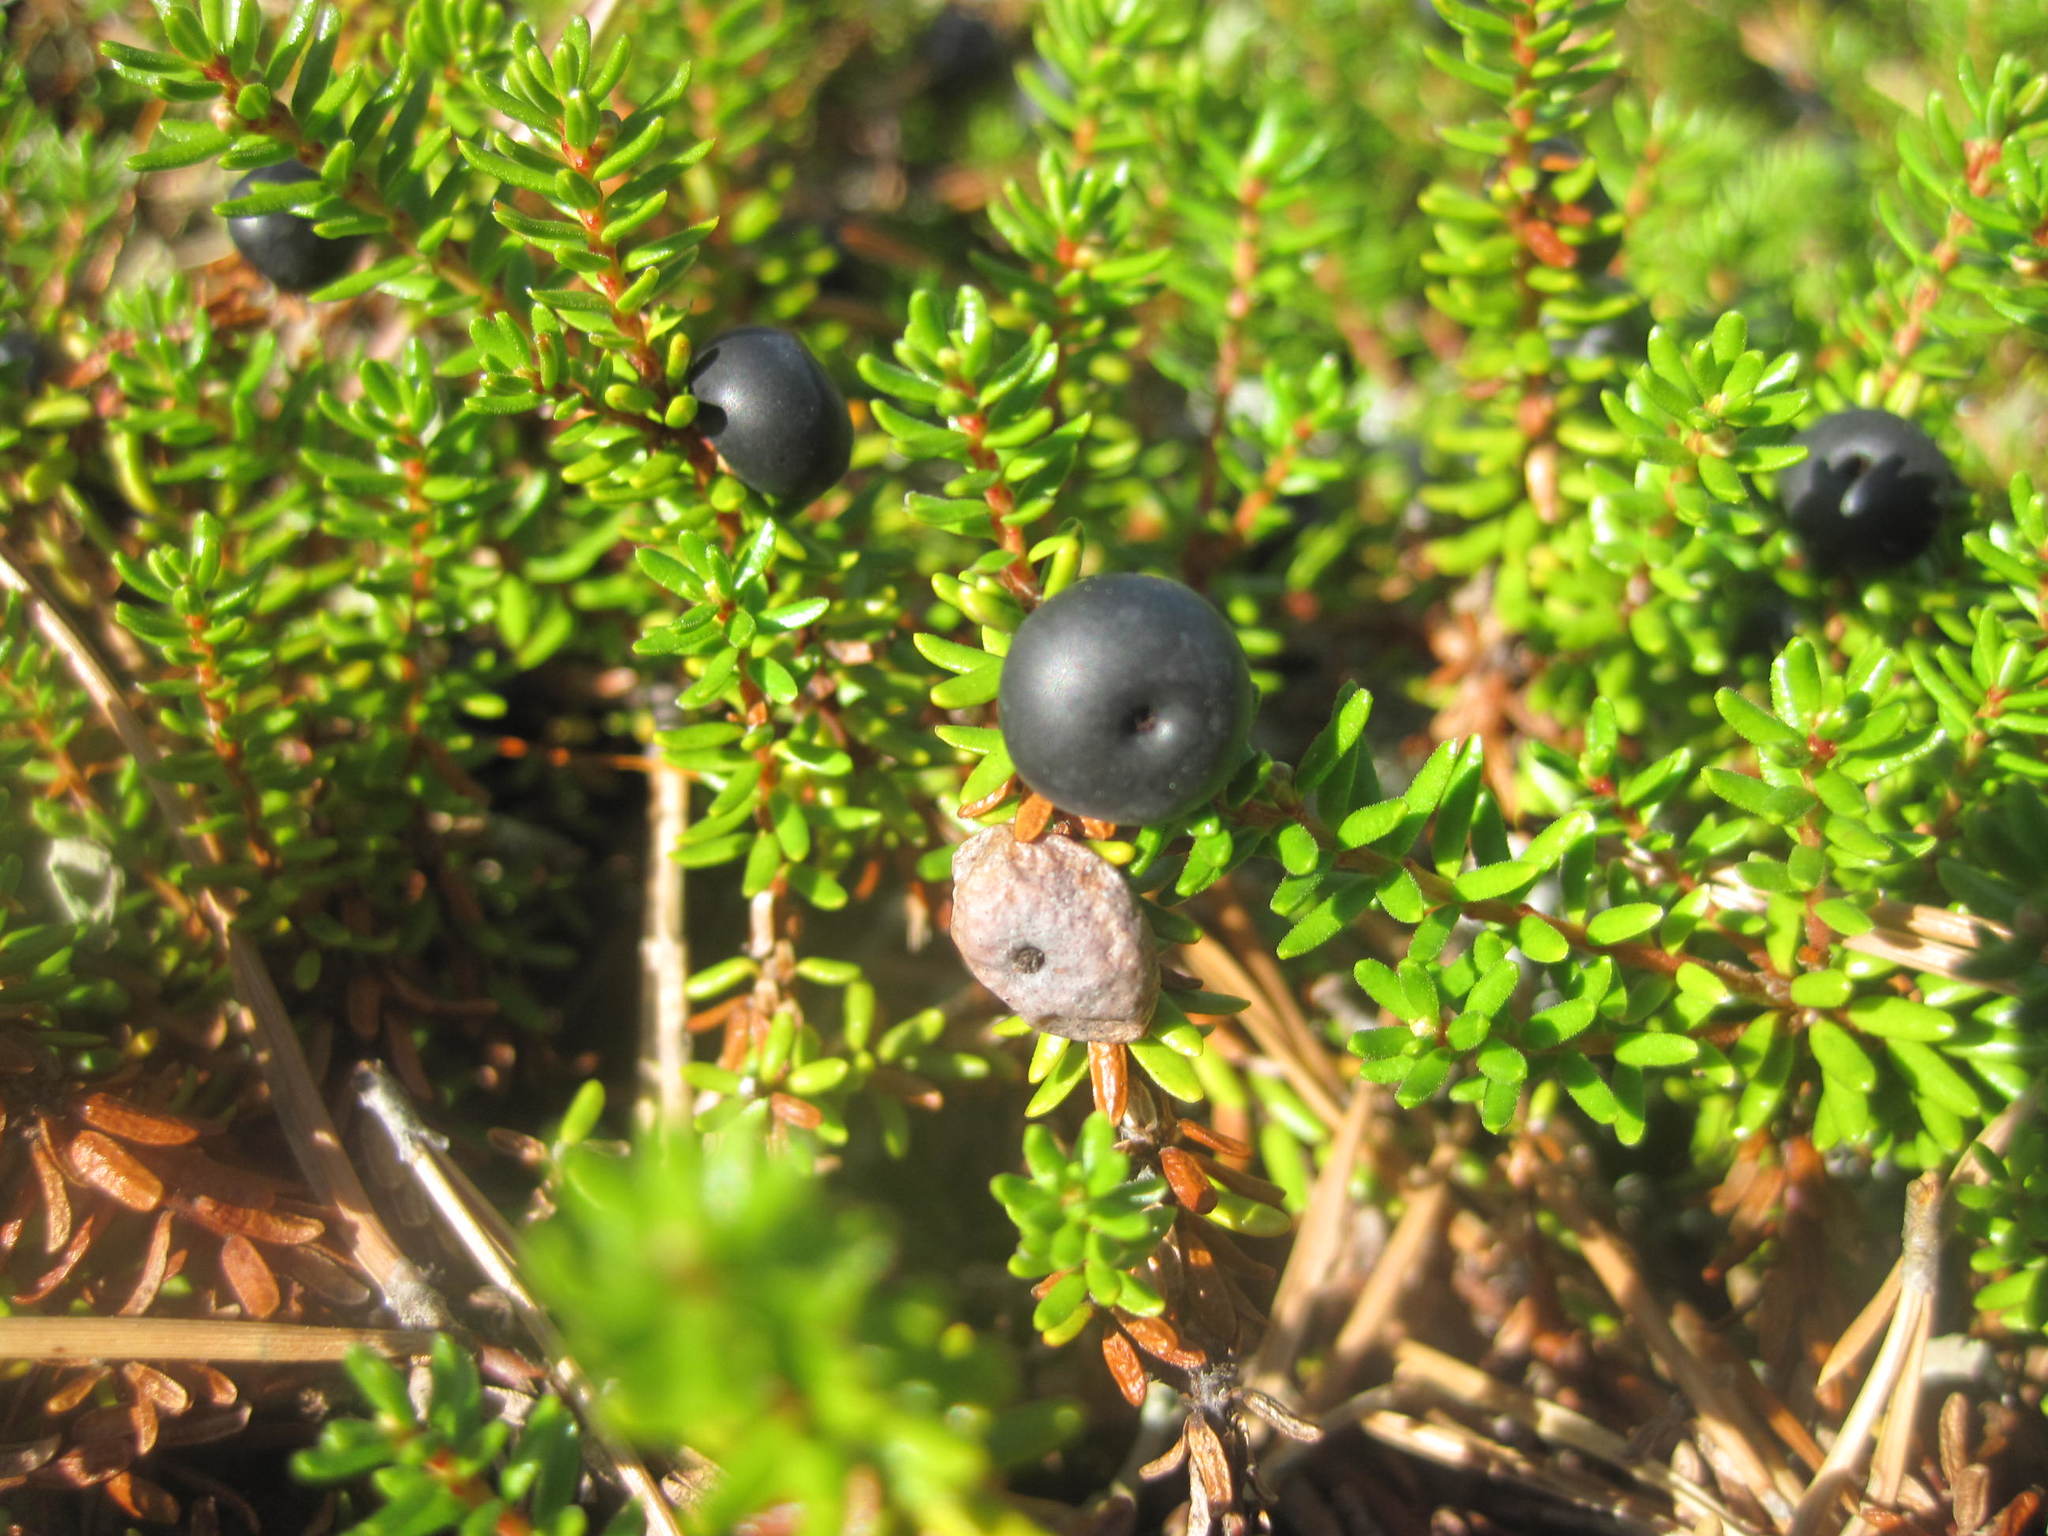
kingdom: Plantae
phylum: Tracheophyta
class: Magnoliopsida
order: Ericales
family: Ericaceae
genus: Empetrum
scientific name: Empetrum nigrum
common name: Black crowberry
